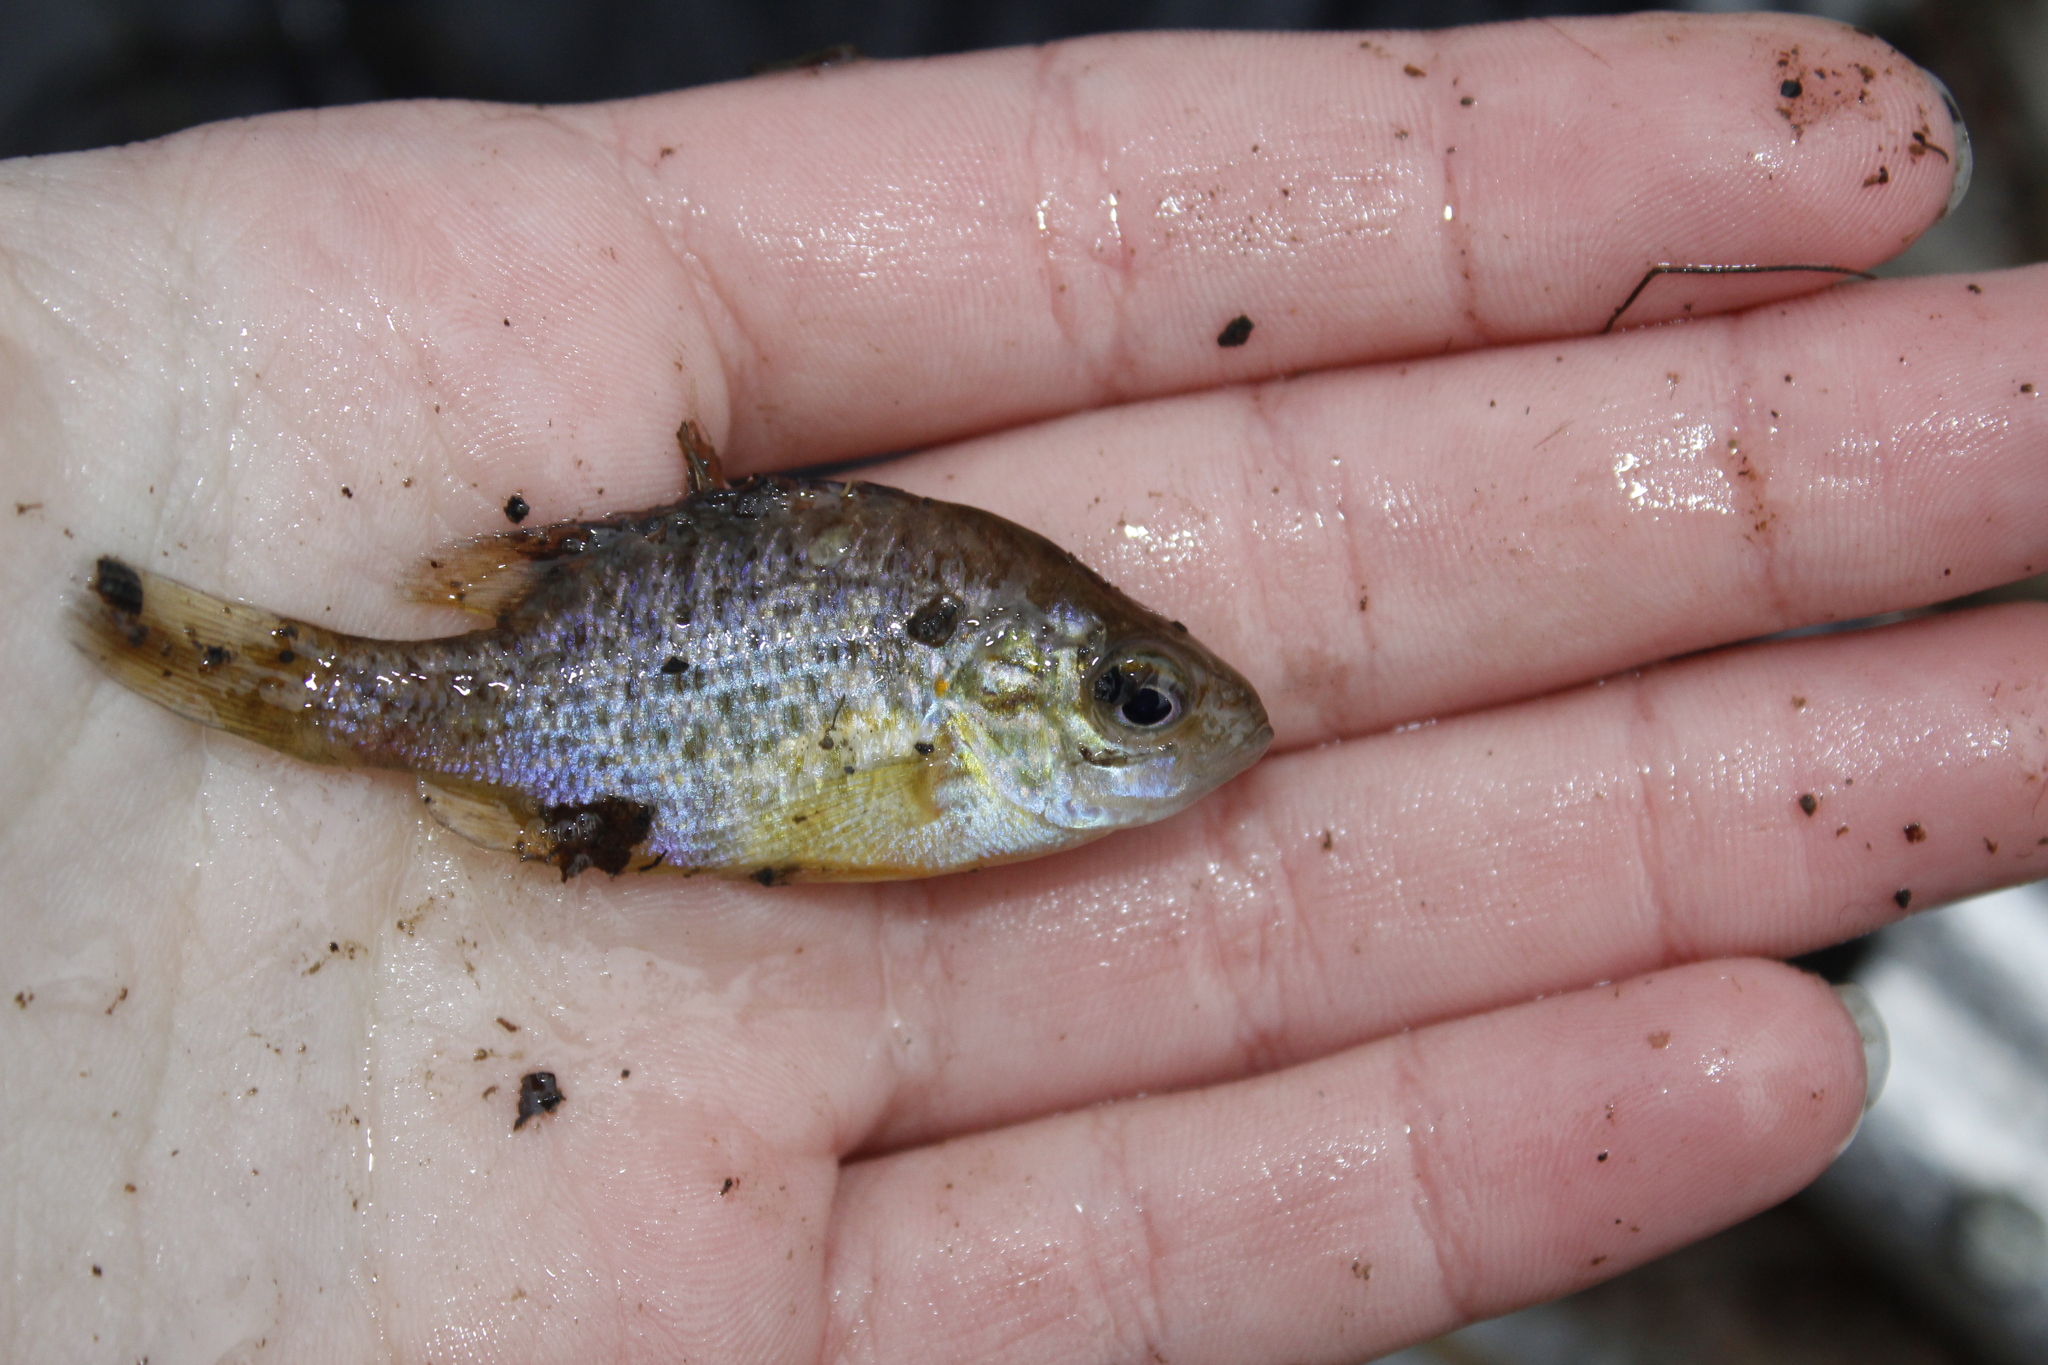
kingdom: Animalia
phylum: Chordata
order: Perciformes
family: Centrarchidae
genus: Lepomis
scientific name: Lepomis gibbosus
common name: Pumpkinseed
